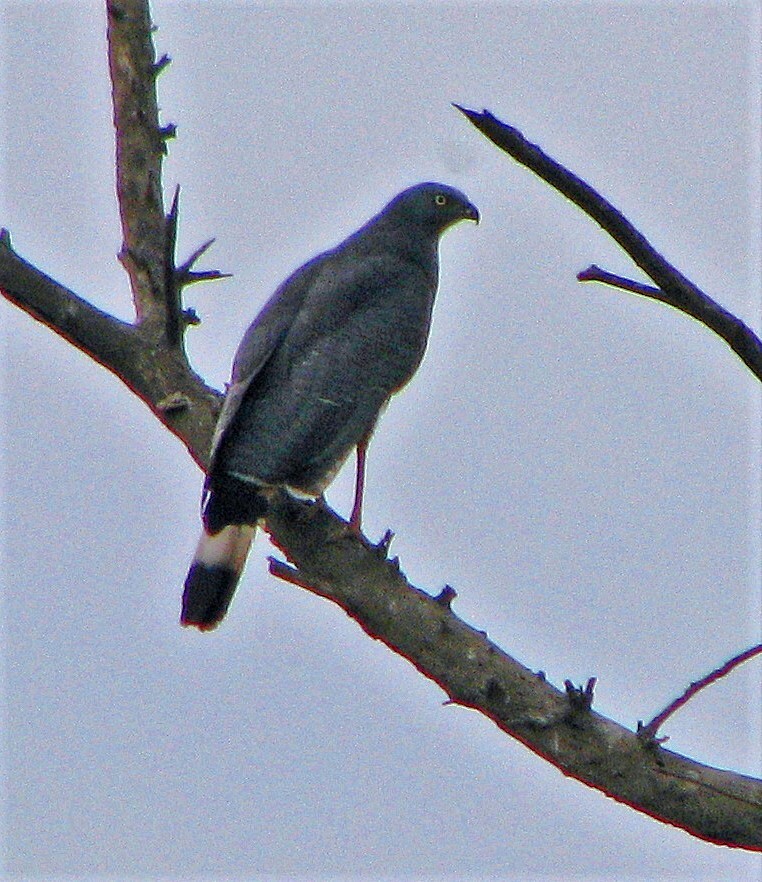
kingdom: Animalia
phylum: Chordata
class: Aves
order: Accipitriformes
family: Accipitridae
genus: Geranospiza
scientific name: Geranospiza caerulescens
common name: Crane hawk
